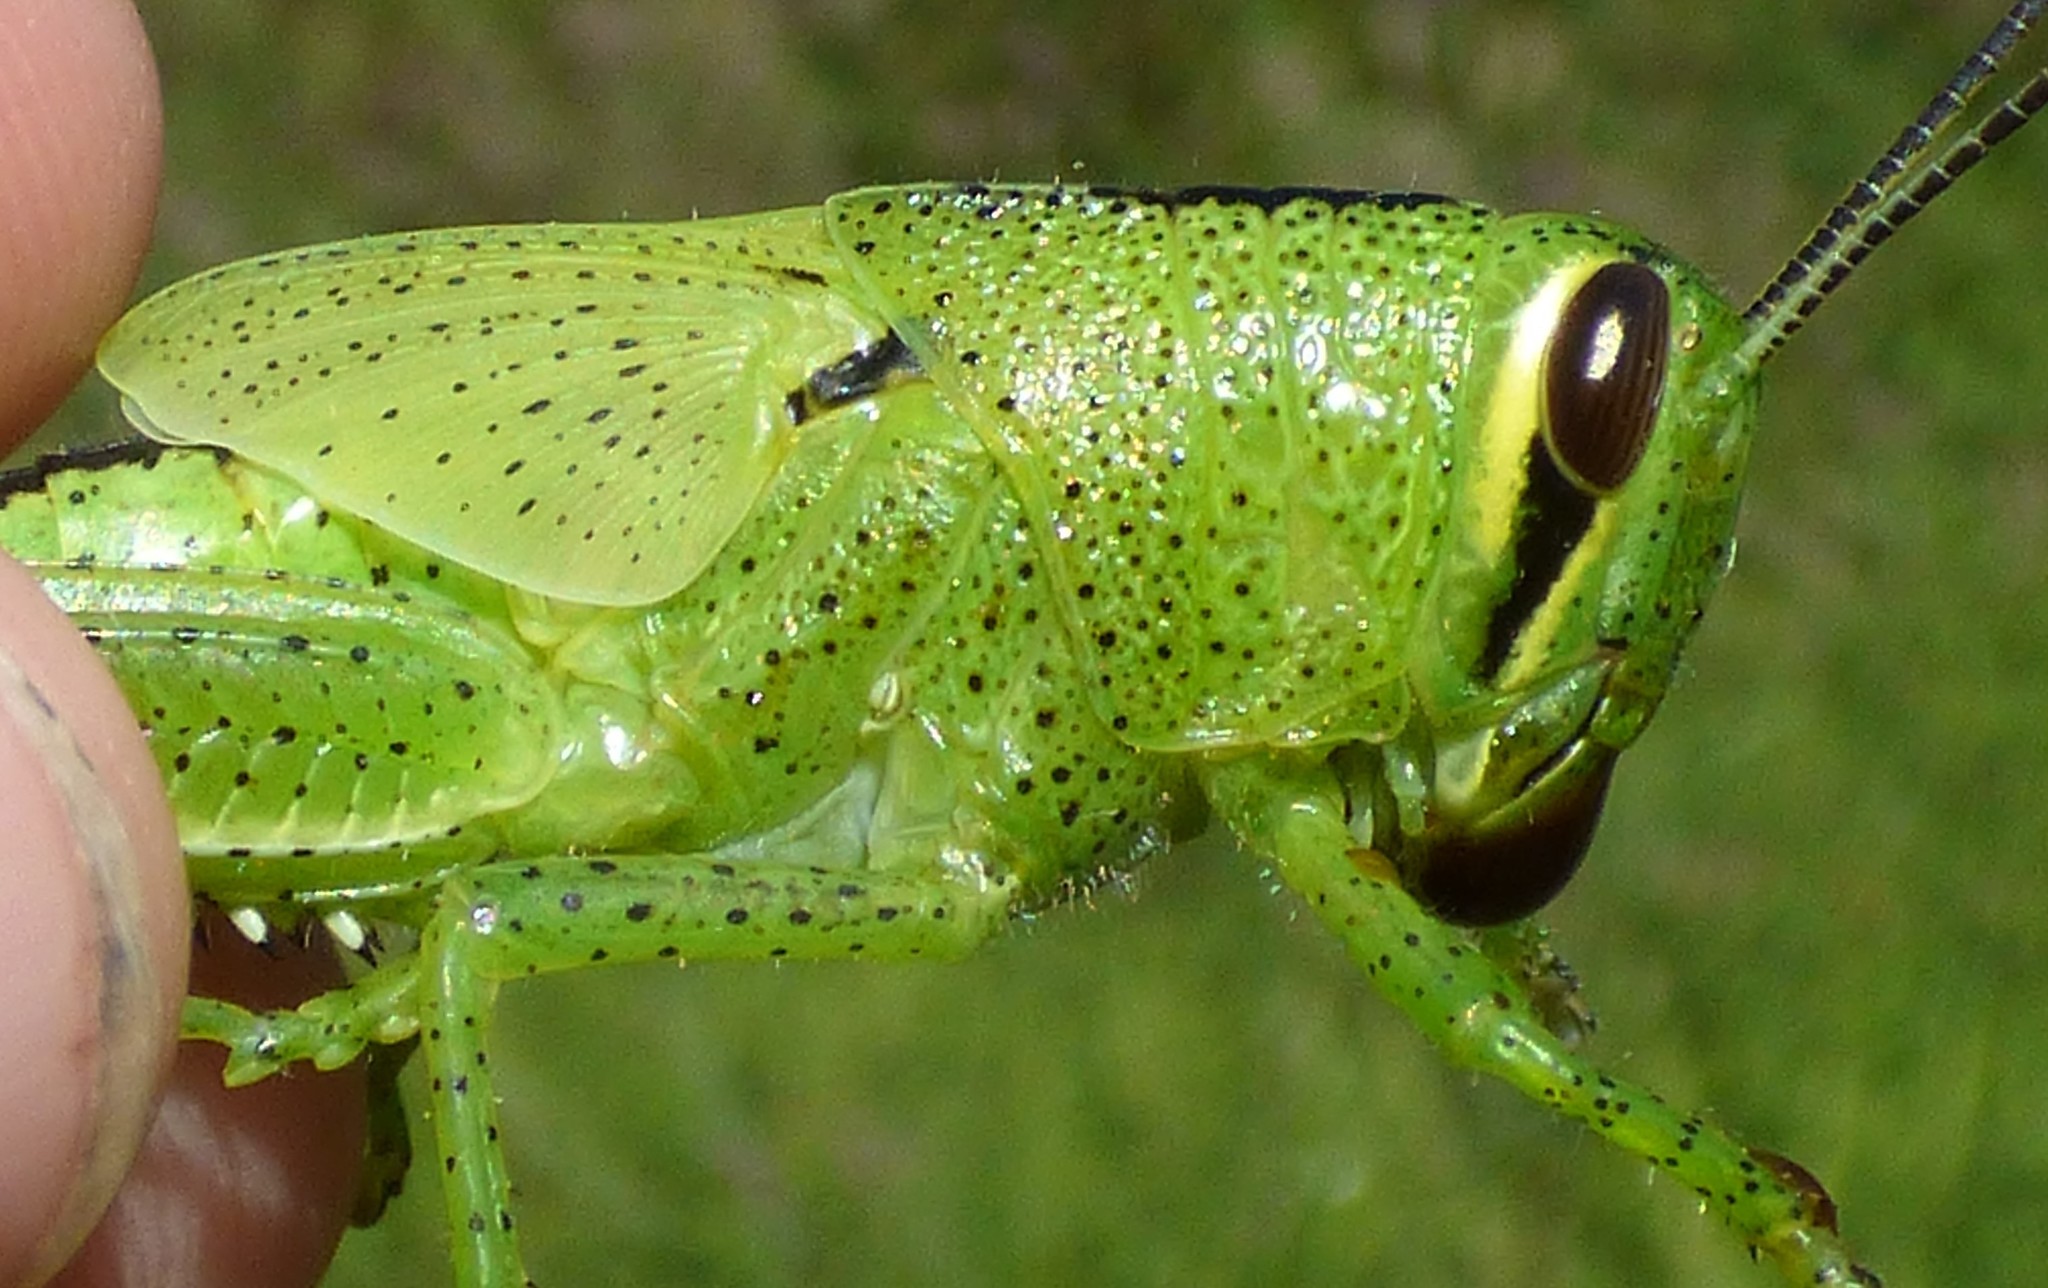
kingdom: Animalia
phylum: Arthropoda
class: Insecta
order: Orthoptera
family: Acrididae
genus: Schistocerca
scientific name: Schistocerca americana
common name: American bird locust
